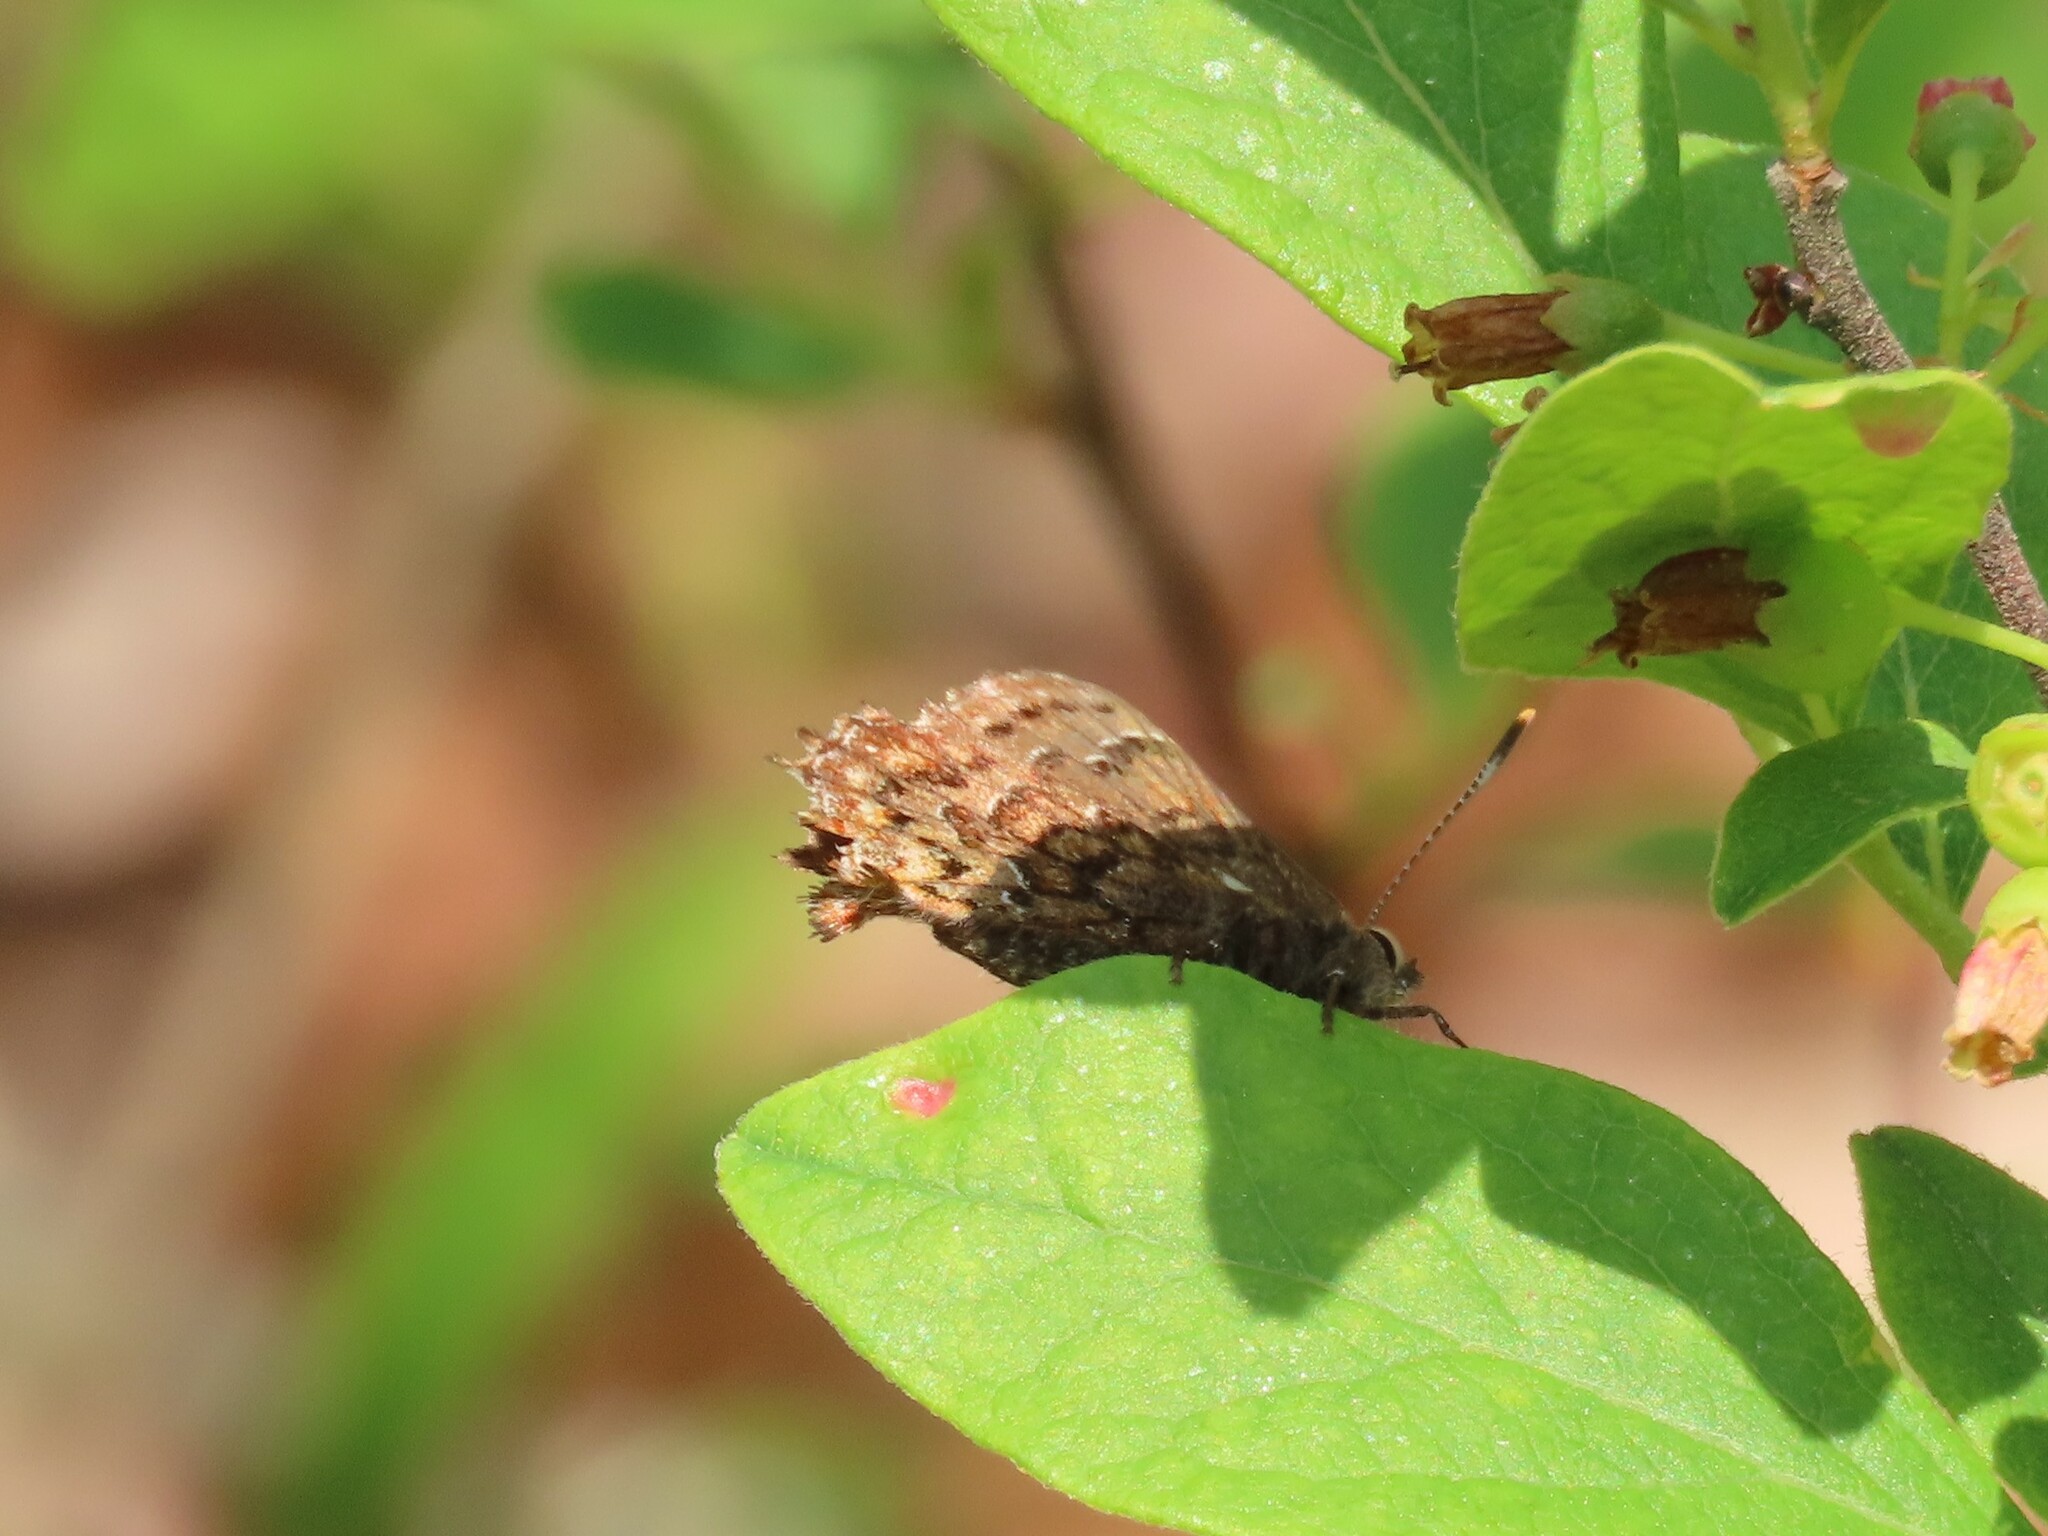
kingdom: Animalia
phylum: Arthropoda
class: Insecta
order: Lepidoptera
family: Lycaenidae
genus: Incisalia
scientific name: Incisalia niphon
